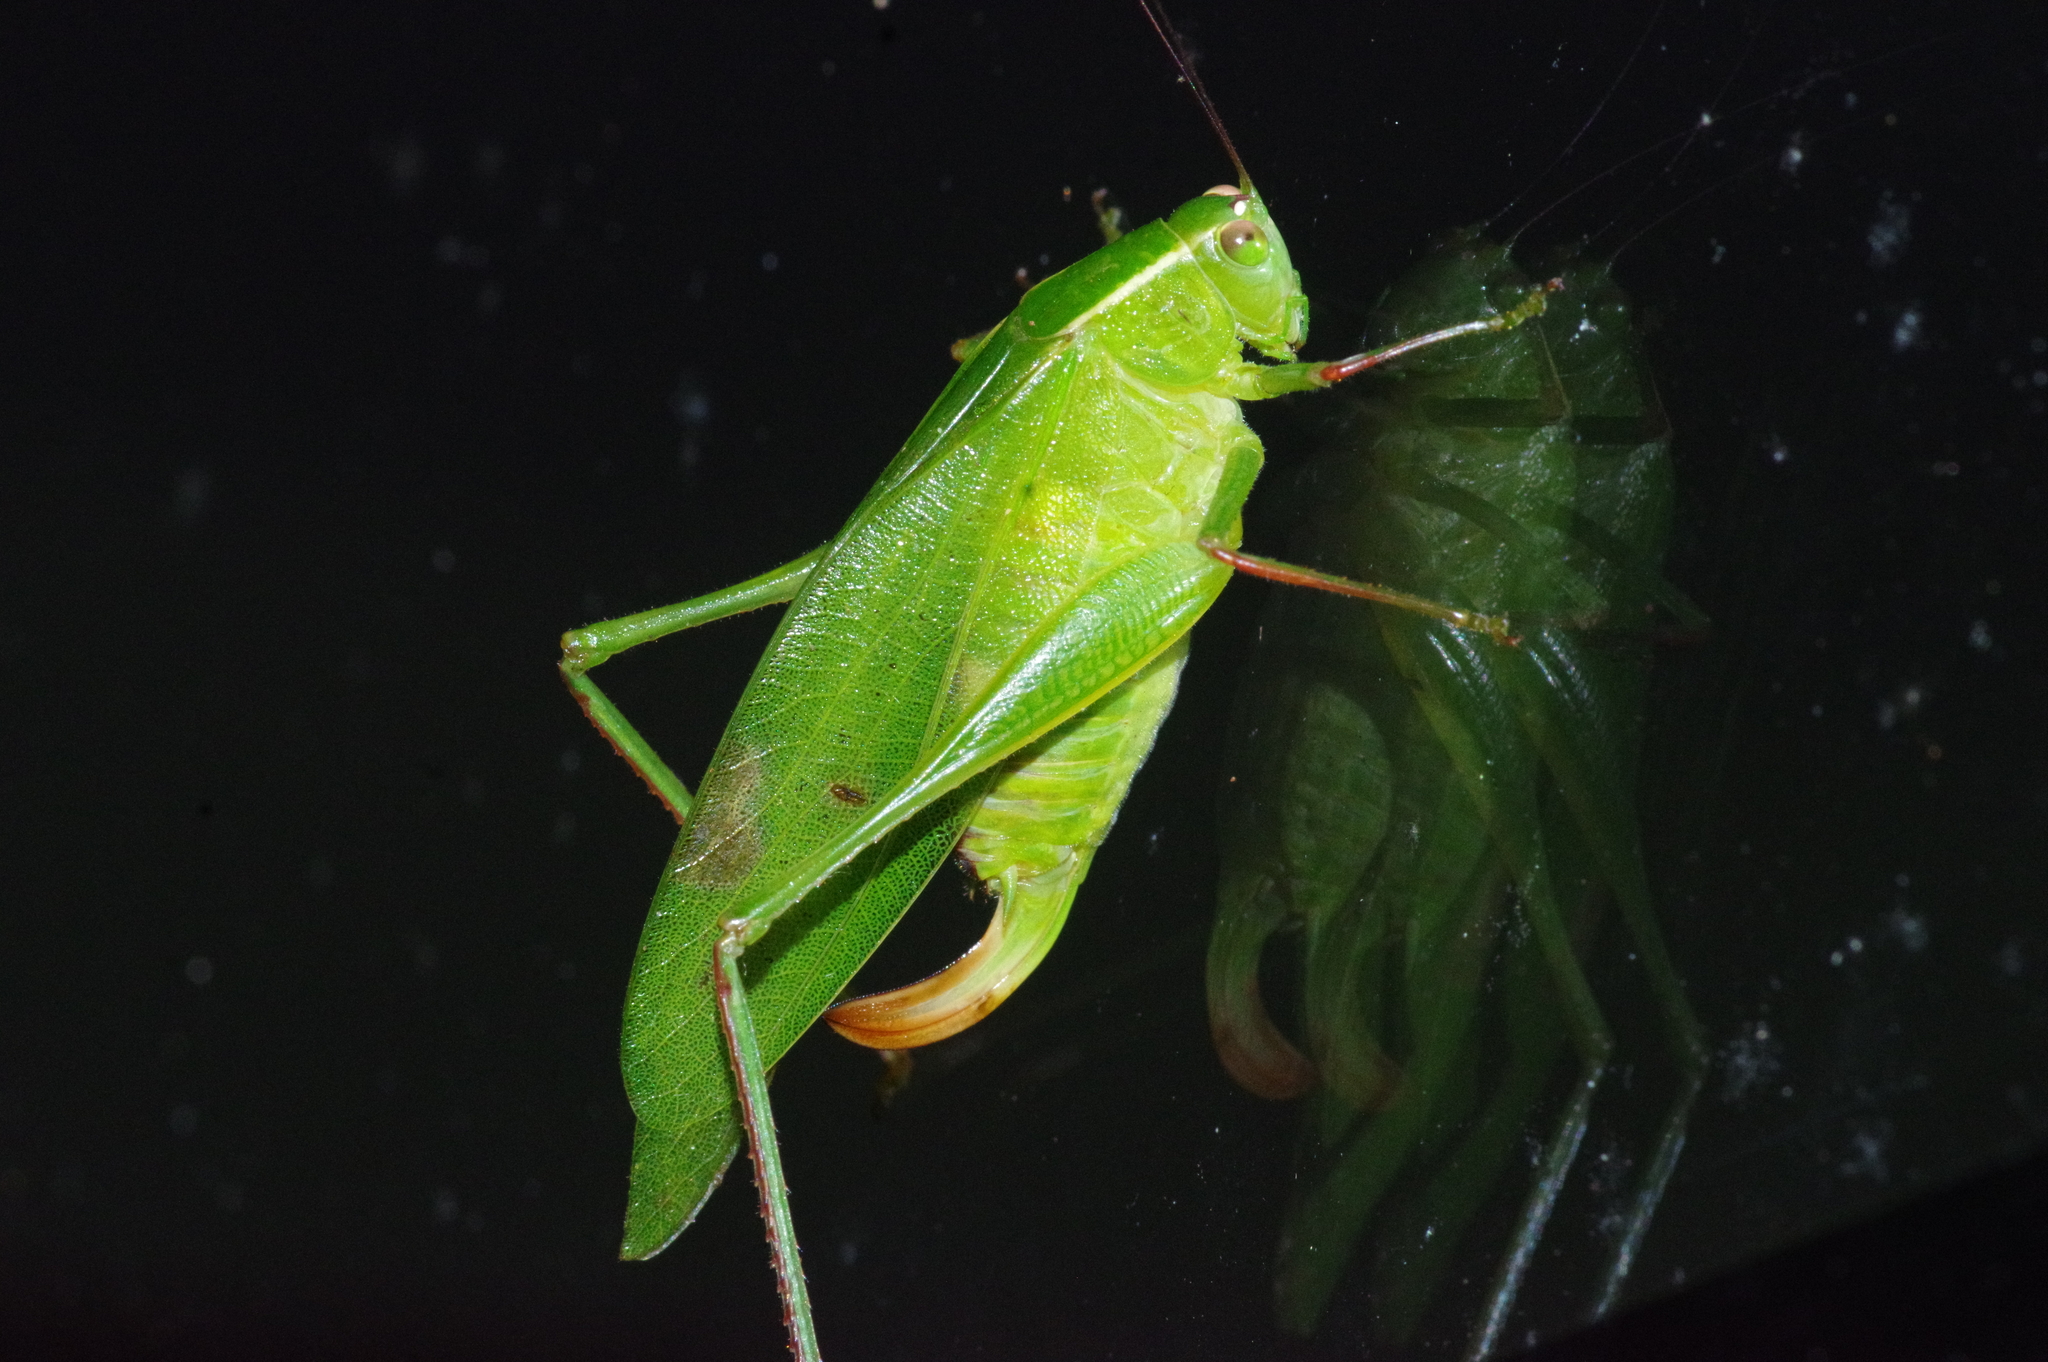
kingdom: Animalia
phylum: Arthropoda
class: Insecta
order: Orthoptera
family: Tettigoniidae
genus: Isopsera
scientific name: Isopsera denticulata
